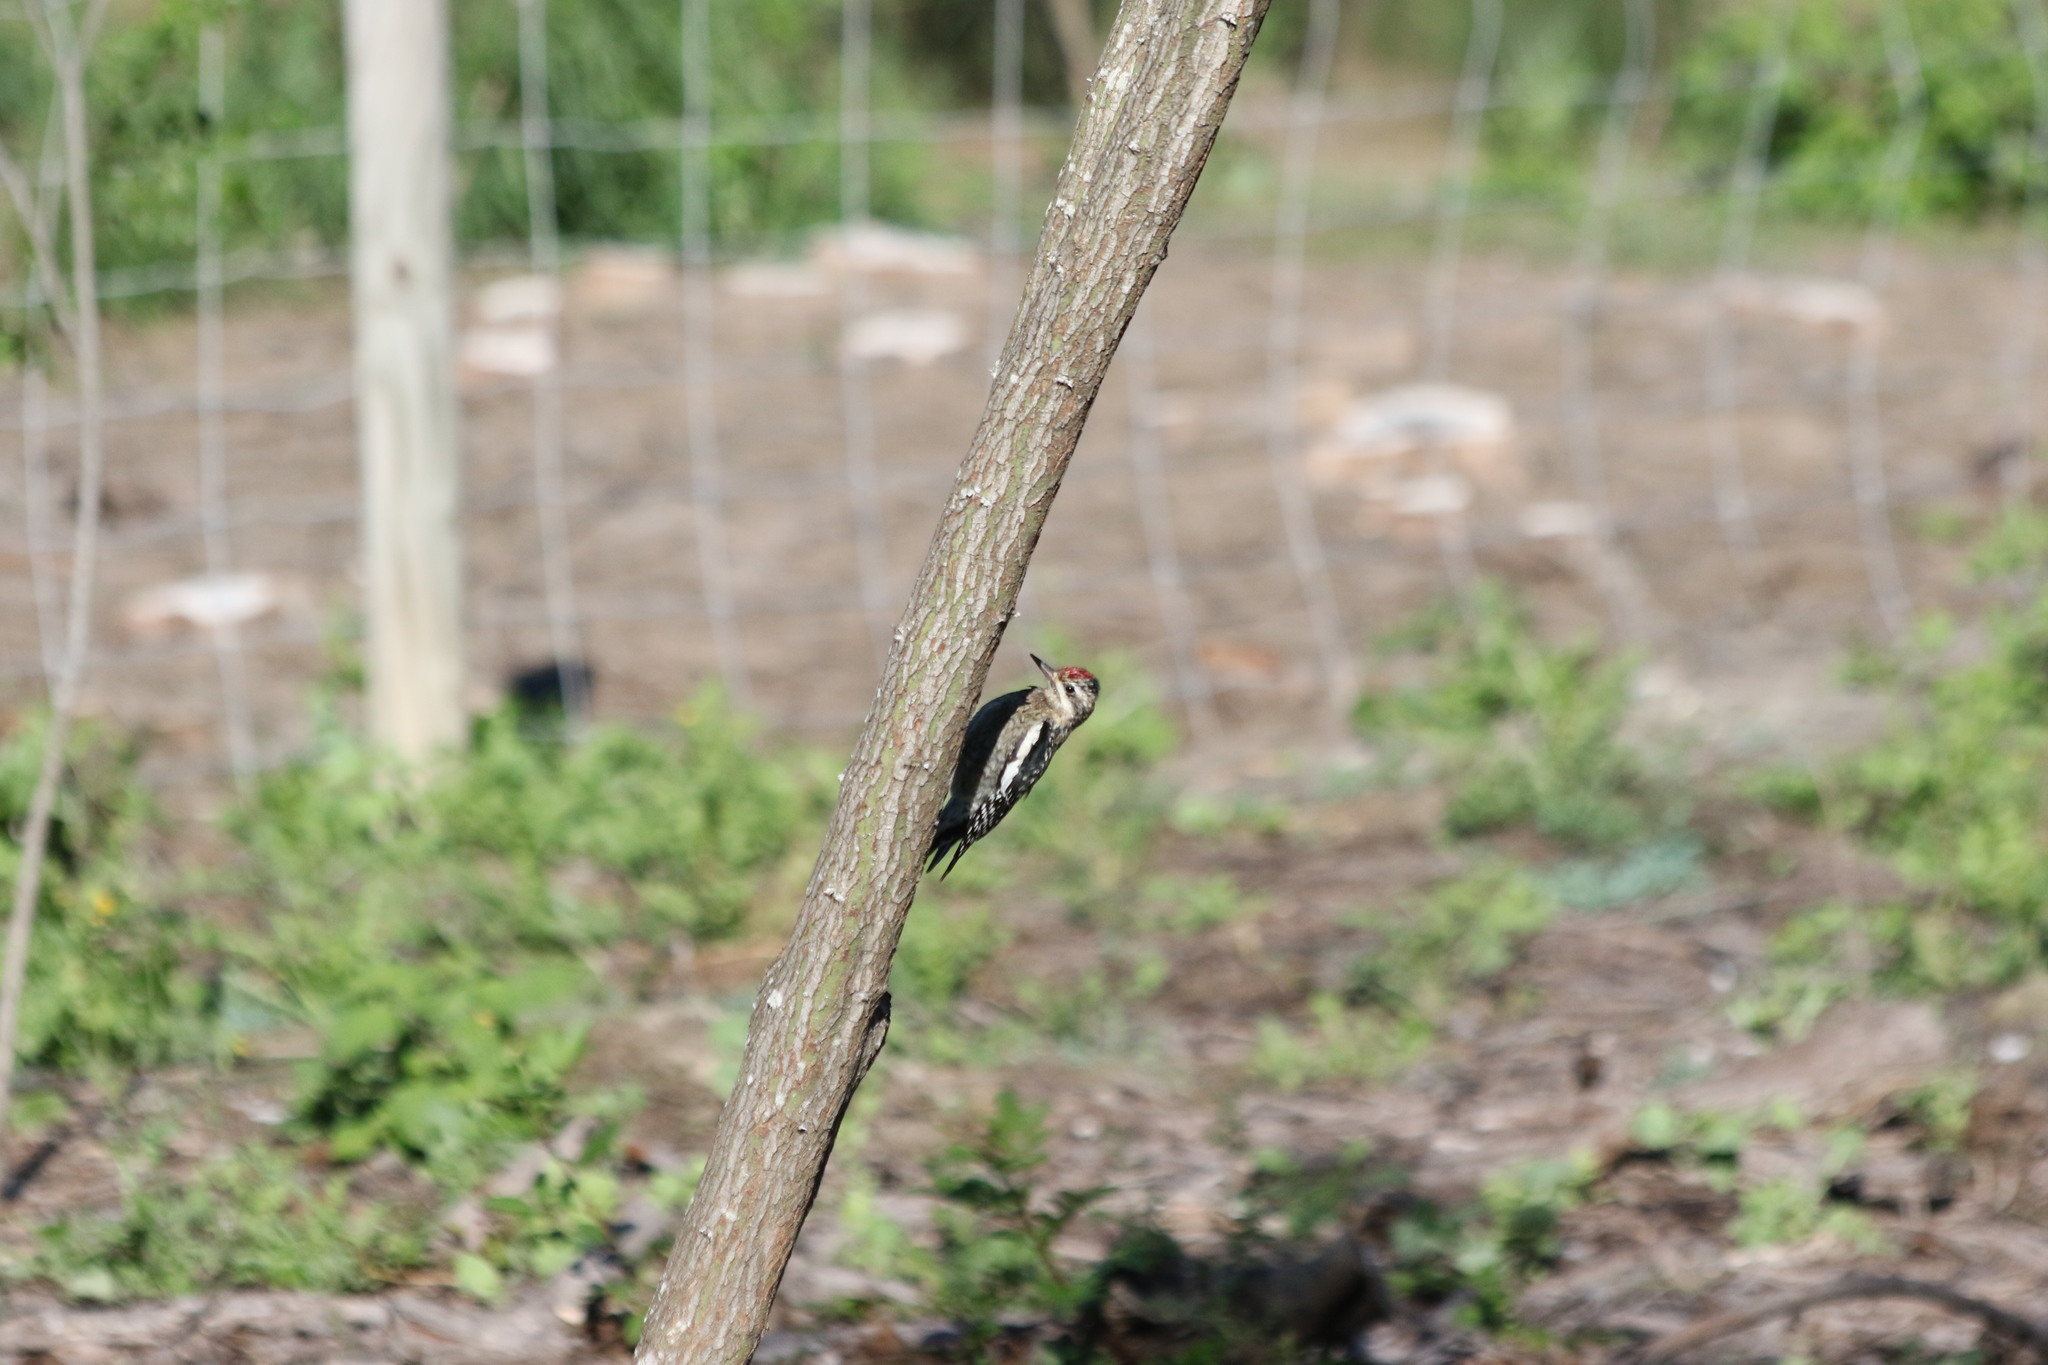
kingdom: Animalia
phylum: Chordata
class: Aves
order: Piciformes
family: Picidae
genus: Sphyrapicus
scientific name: Sphyrapicus varius
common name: Yellow-bellied sapsucker
